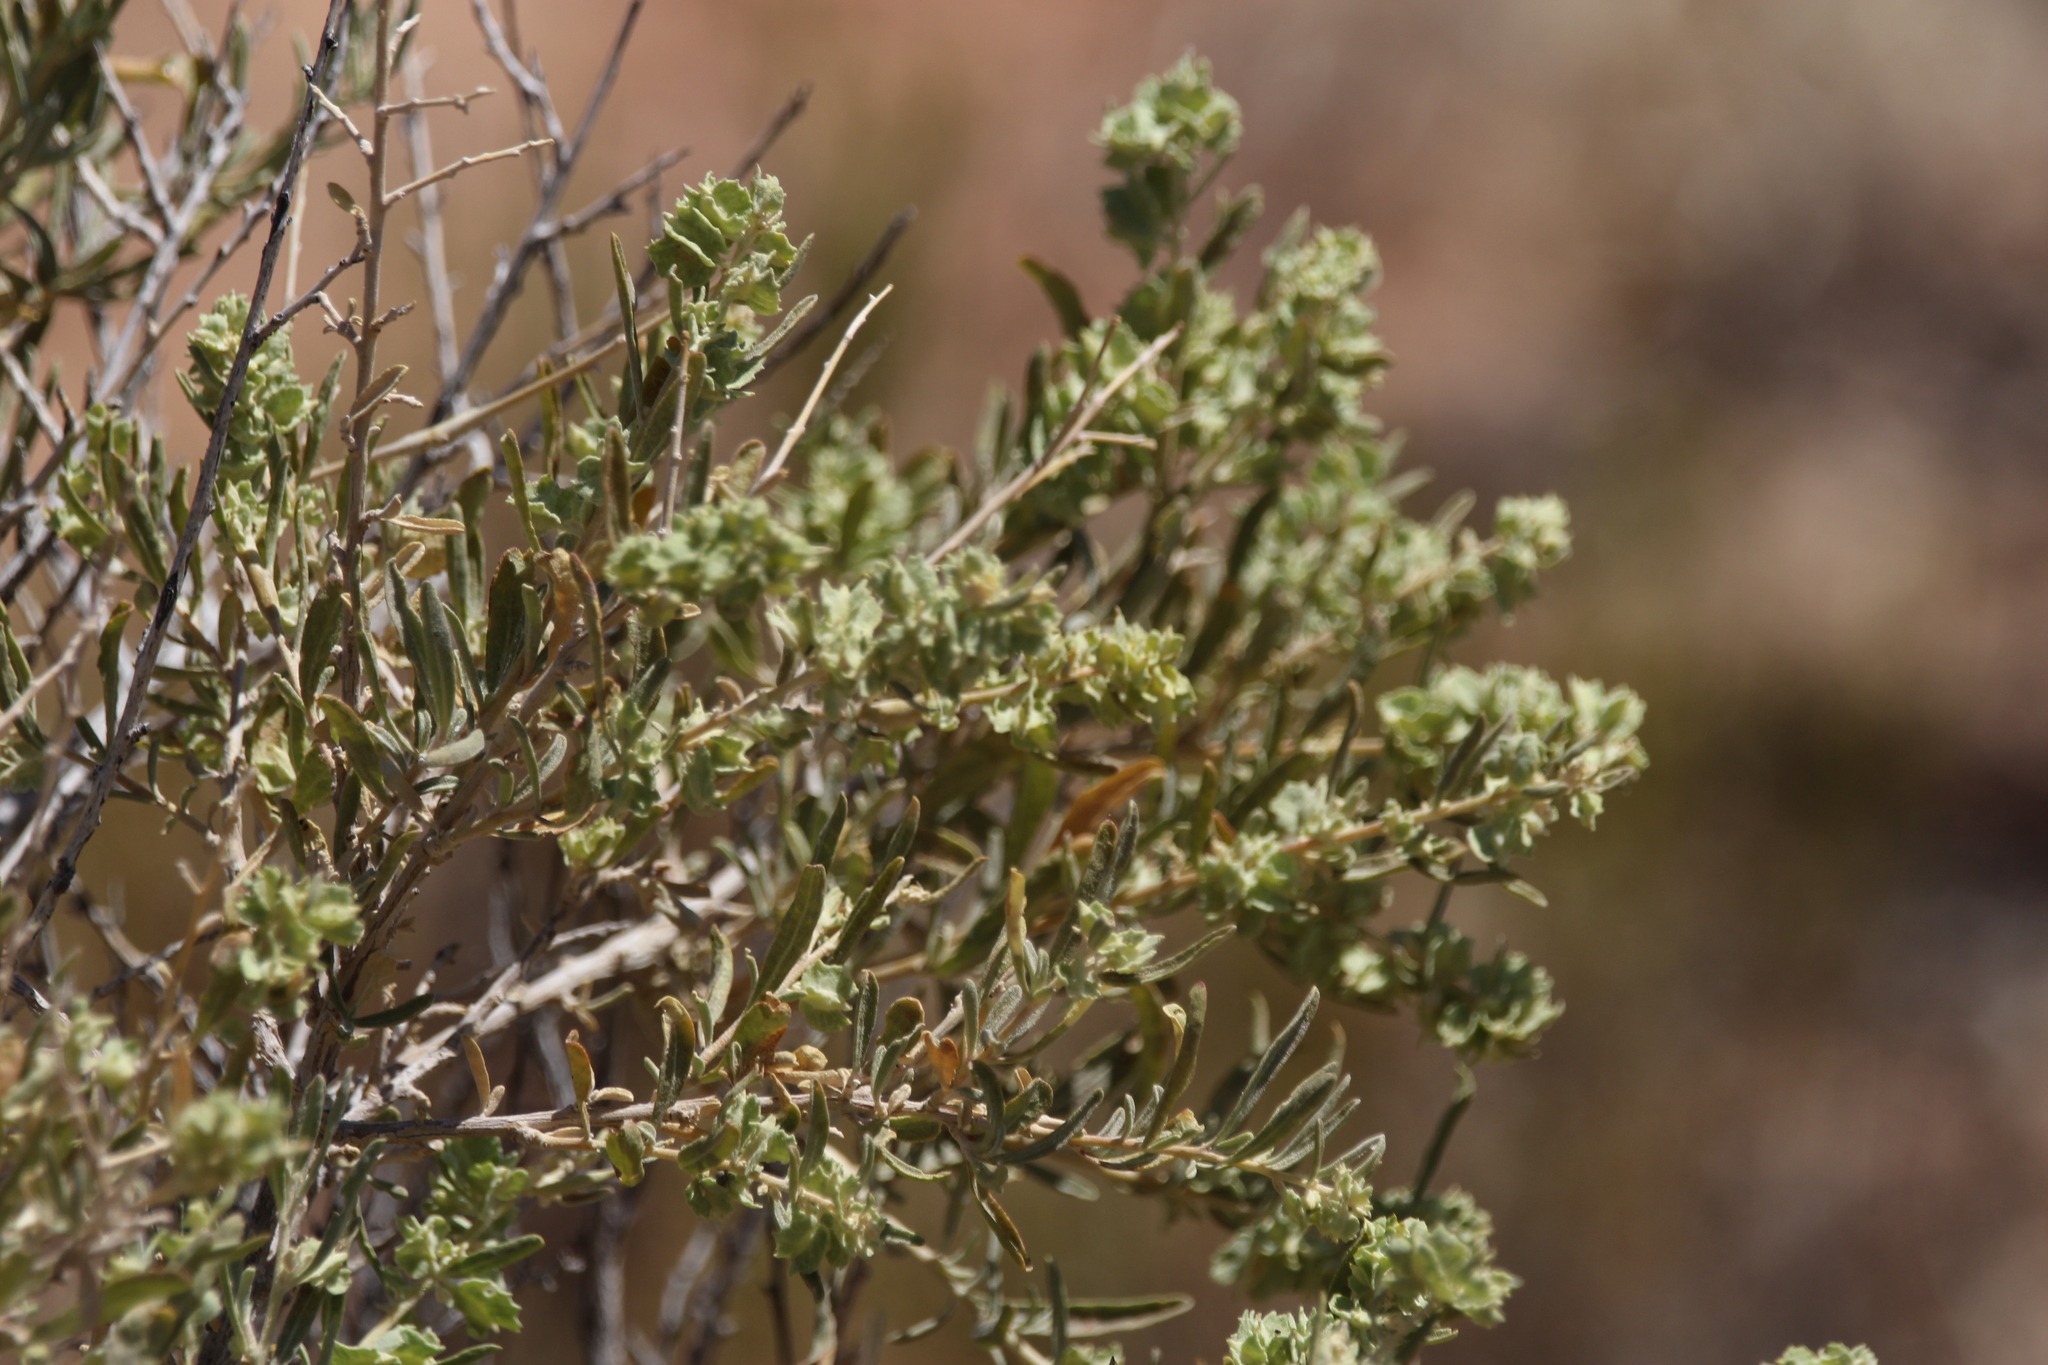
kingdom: Plantae
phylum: Tracheophyta
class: Magnoliopsida
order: Caryophyllales
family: Amaranthaceae
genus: Atriplex
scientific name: Atriplex canescens
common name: Four-wing saltbush
